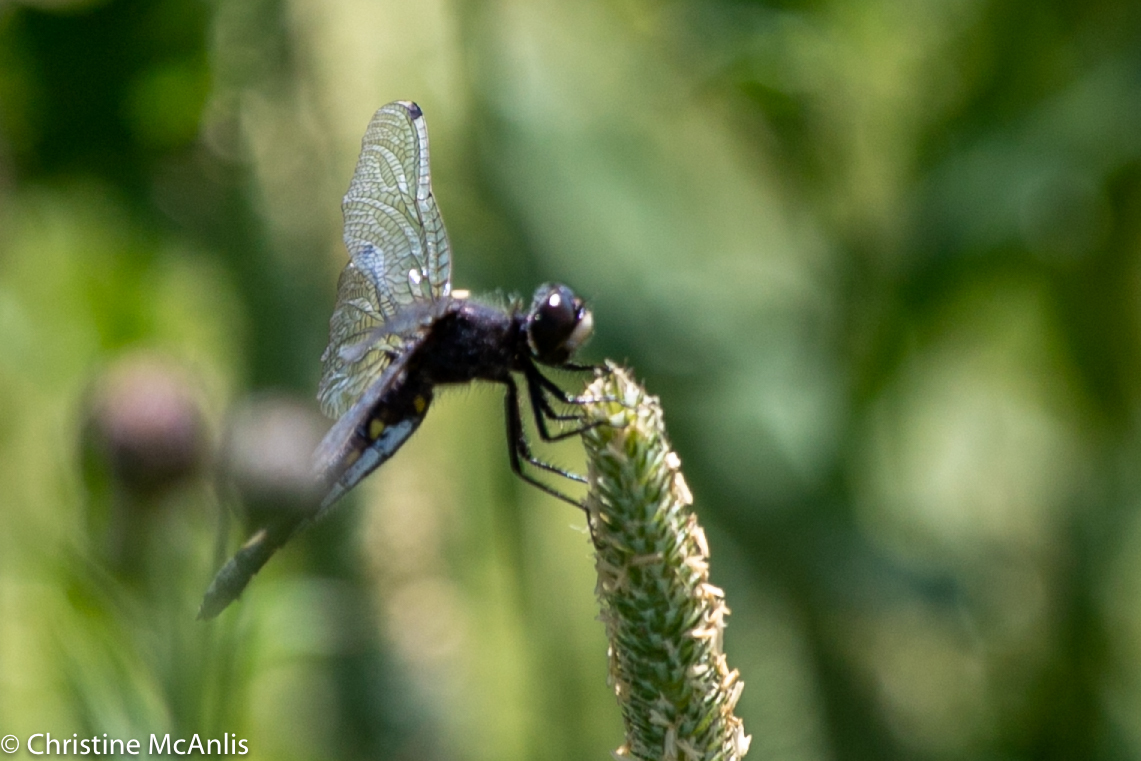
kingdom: Animalia
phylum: Arthropoda
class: Insecta
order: Odonata
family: Libellulidae
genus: Leucorrhinia
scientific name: Leucorrhinia intacta
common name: Dot-tailed whiteface
